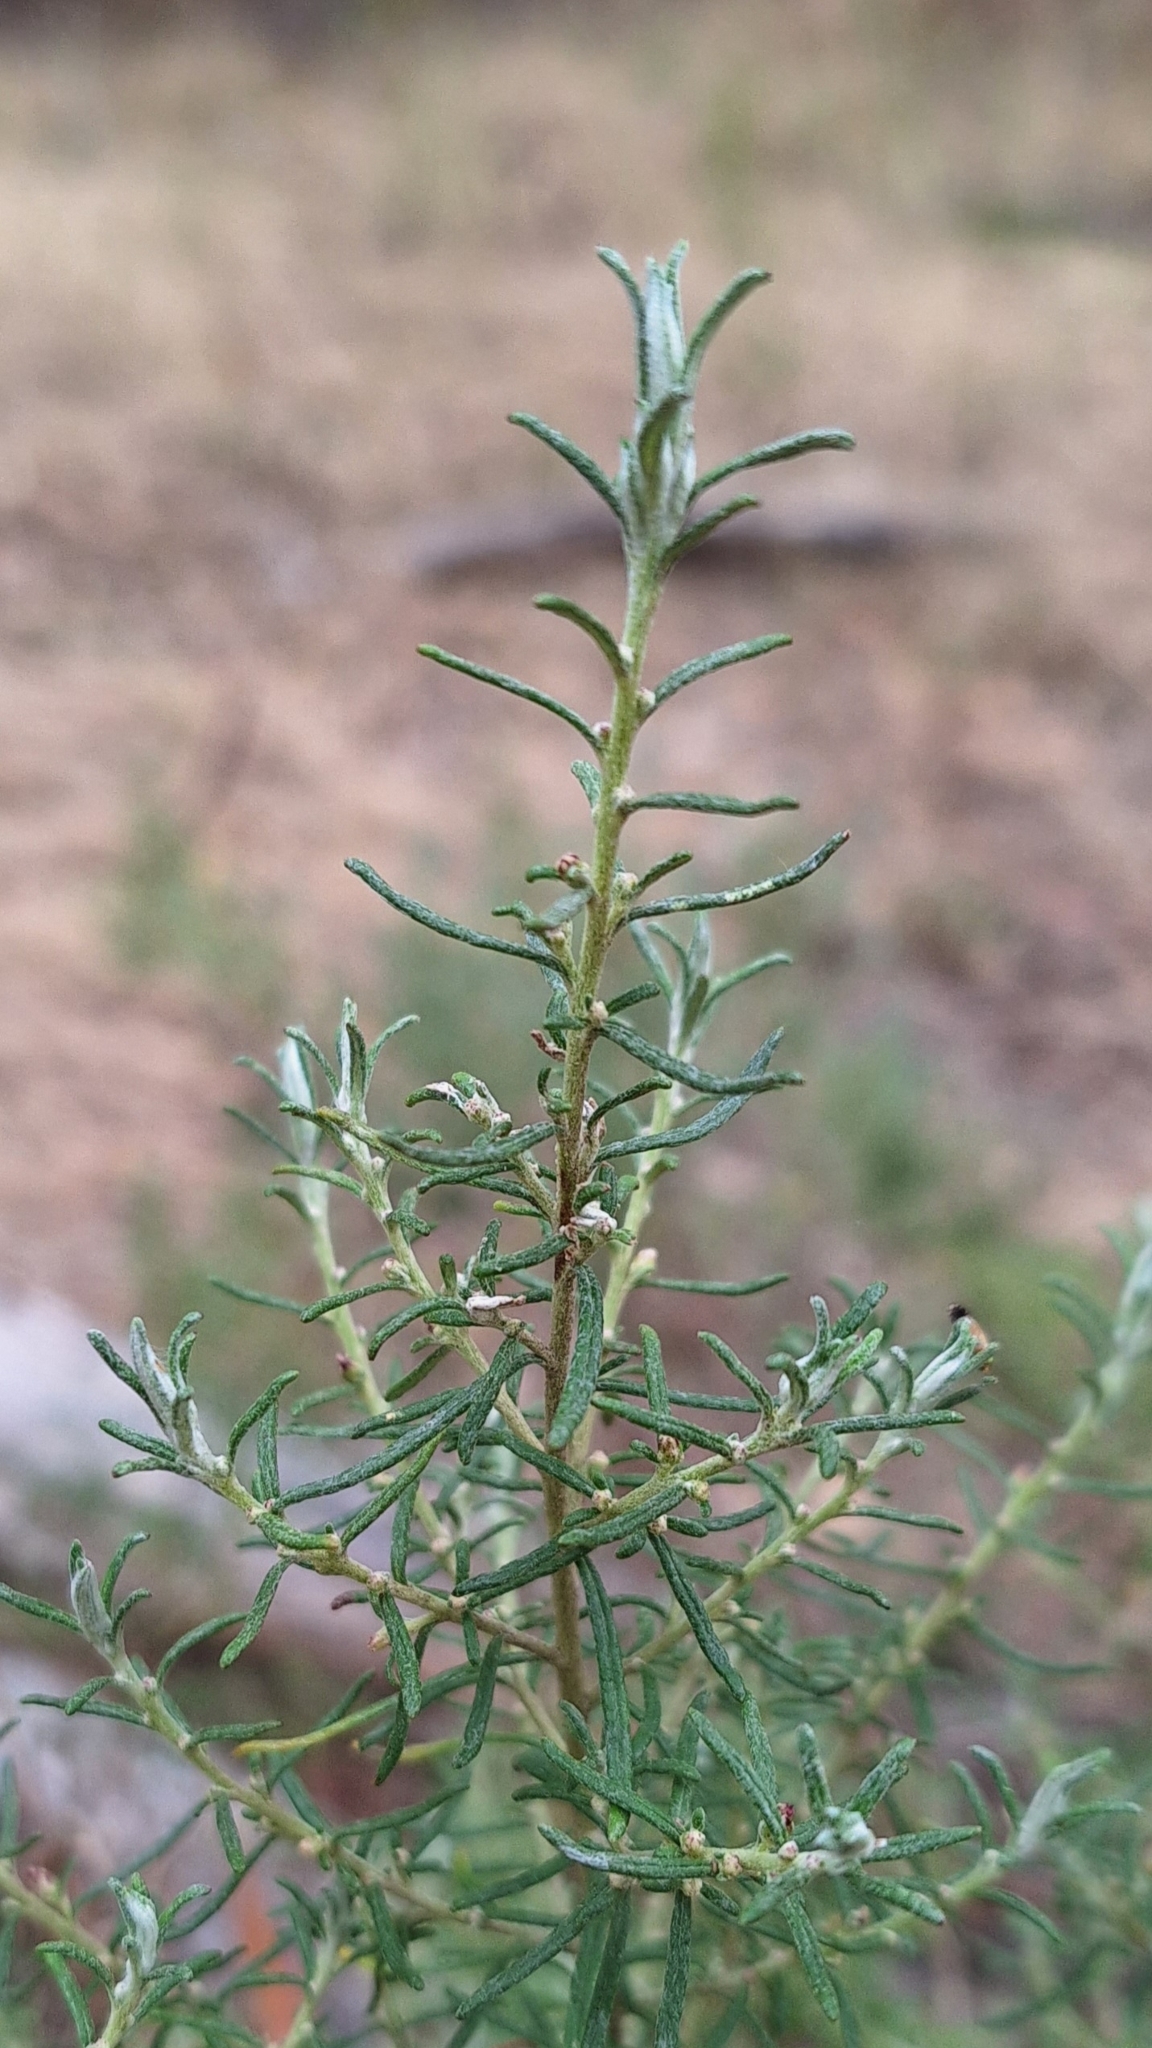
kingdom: Plantae
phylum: Tracheophyta
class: Magnoliopsida
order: Asterales
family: Asteraceae
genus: Olearia
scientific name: Olearia ramulosa
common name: Twiggy daisybush
